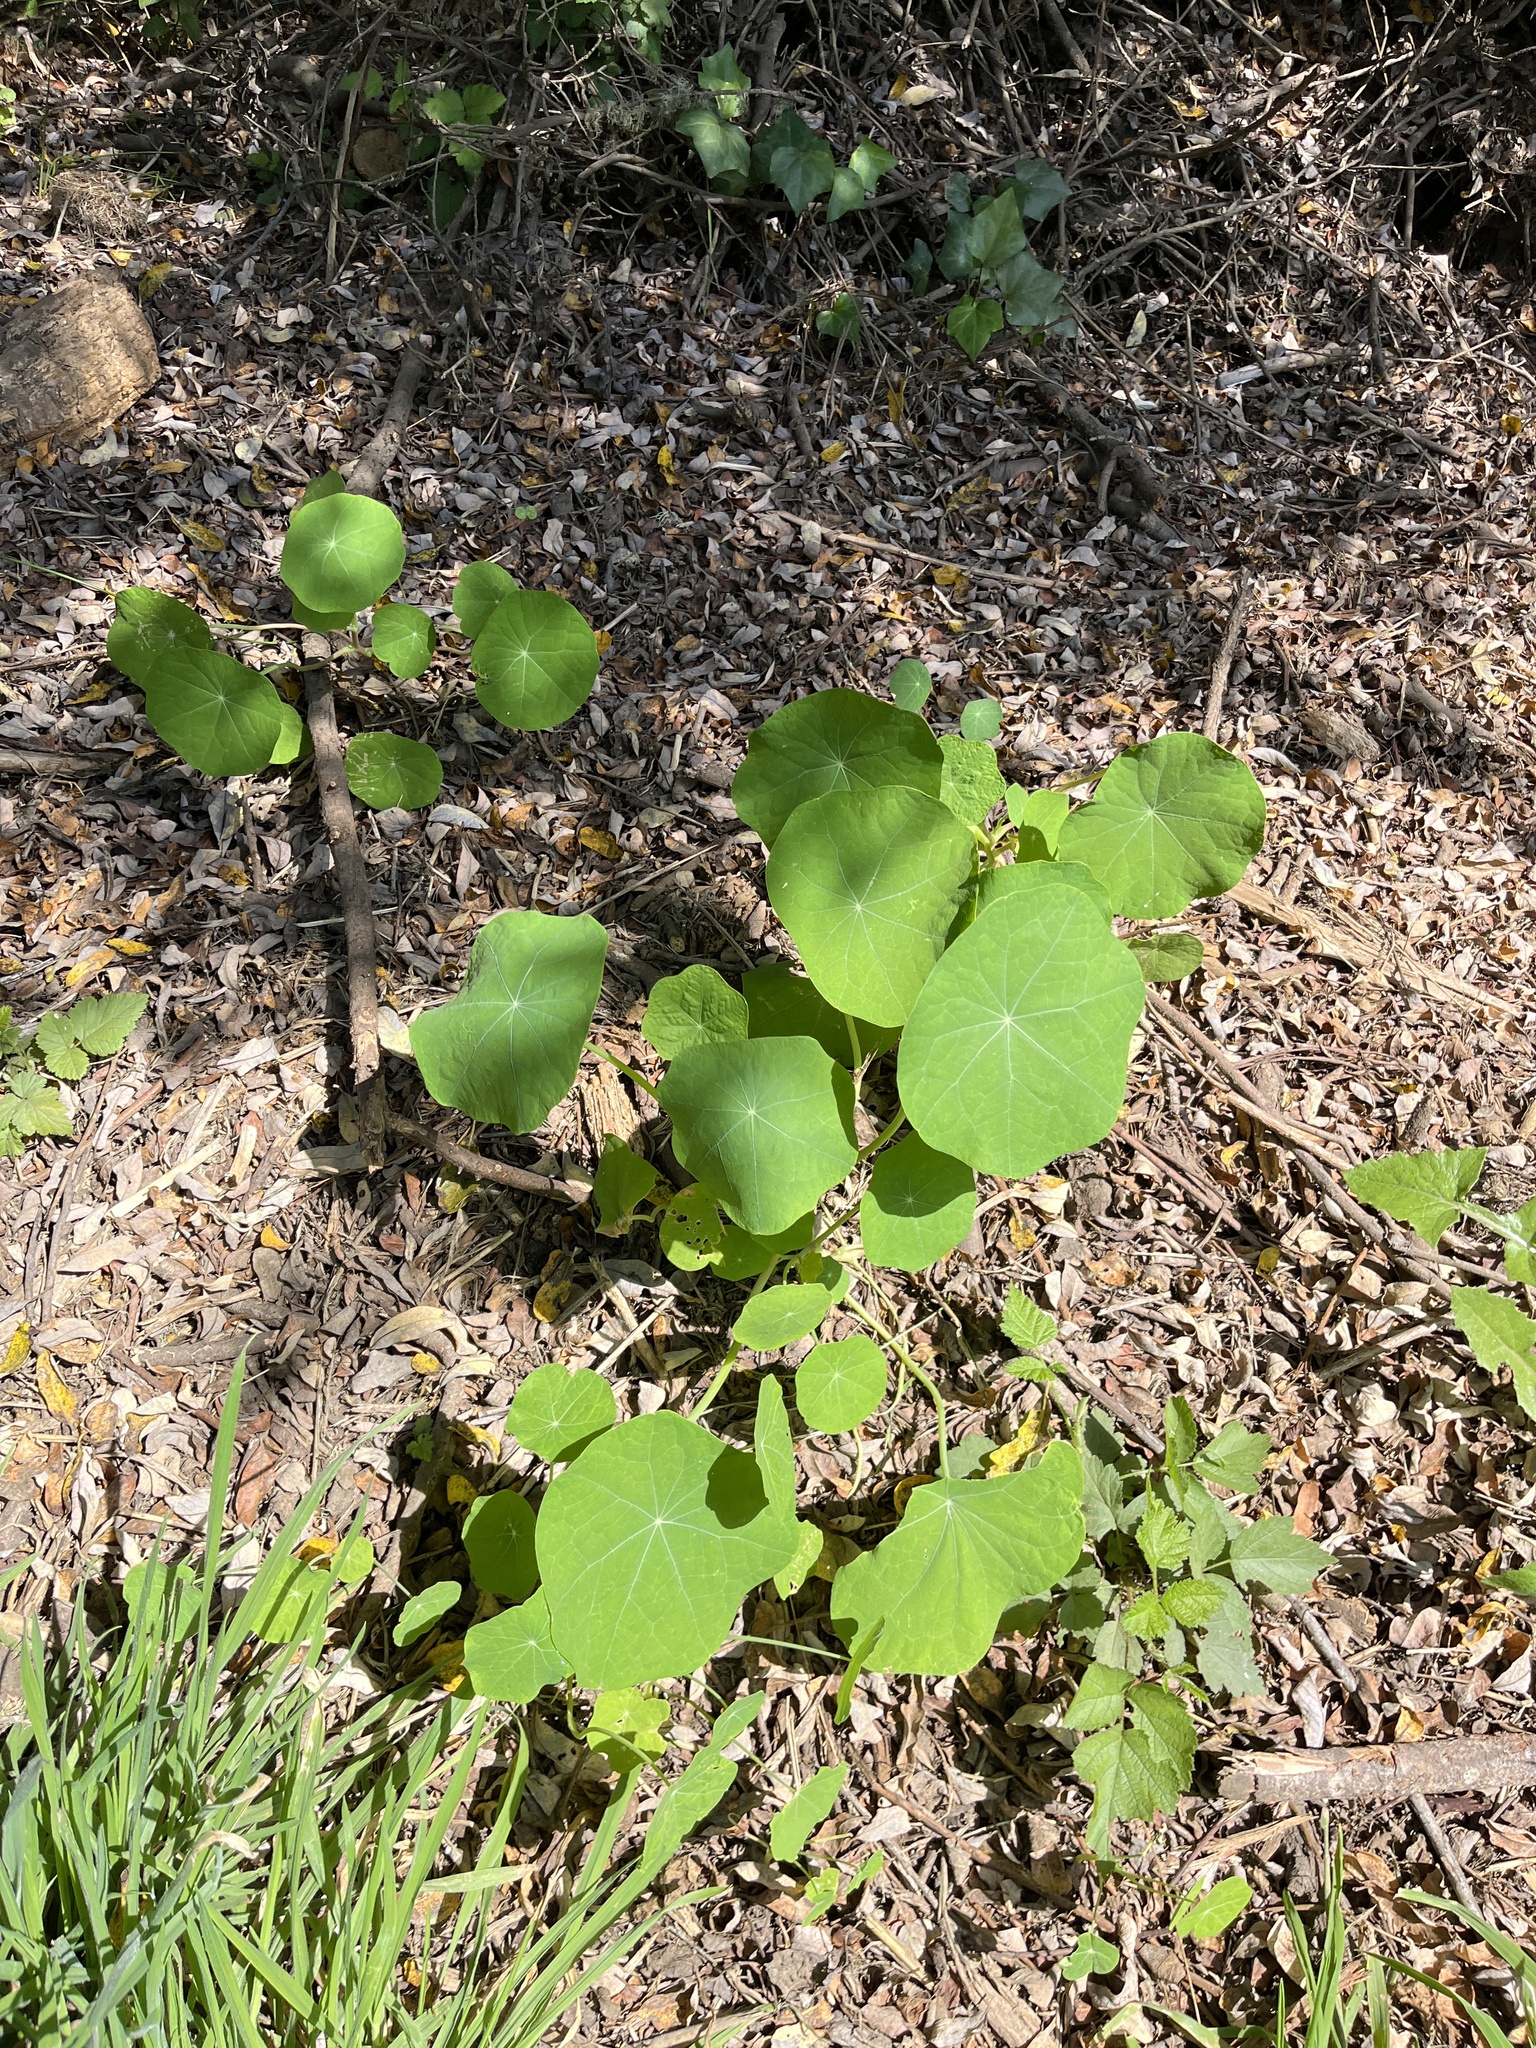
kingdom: Plantae
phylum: Tracheophyta
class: Magnoliopsida
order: Brassicales
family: Tropaeolaceae
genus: Tropaeolum
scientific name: Tropaeolum majus
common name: Nasturtium
